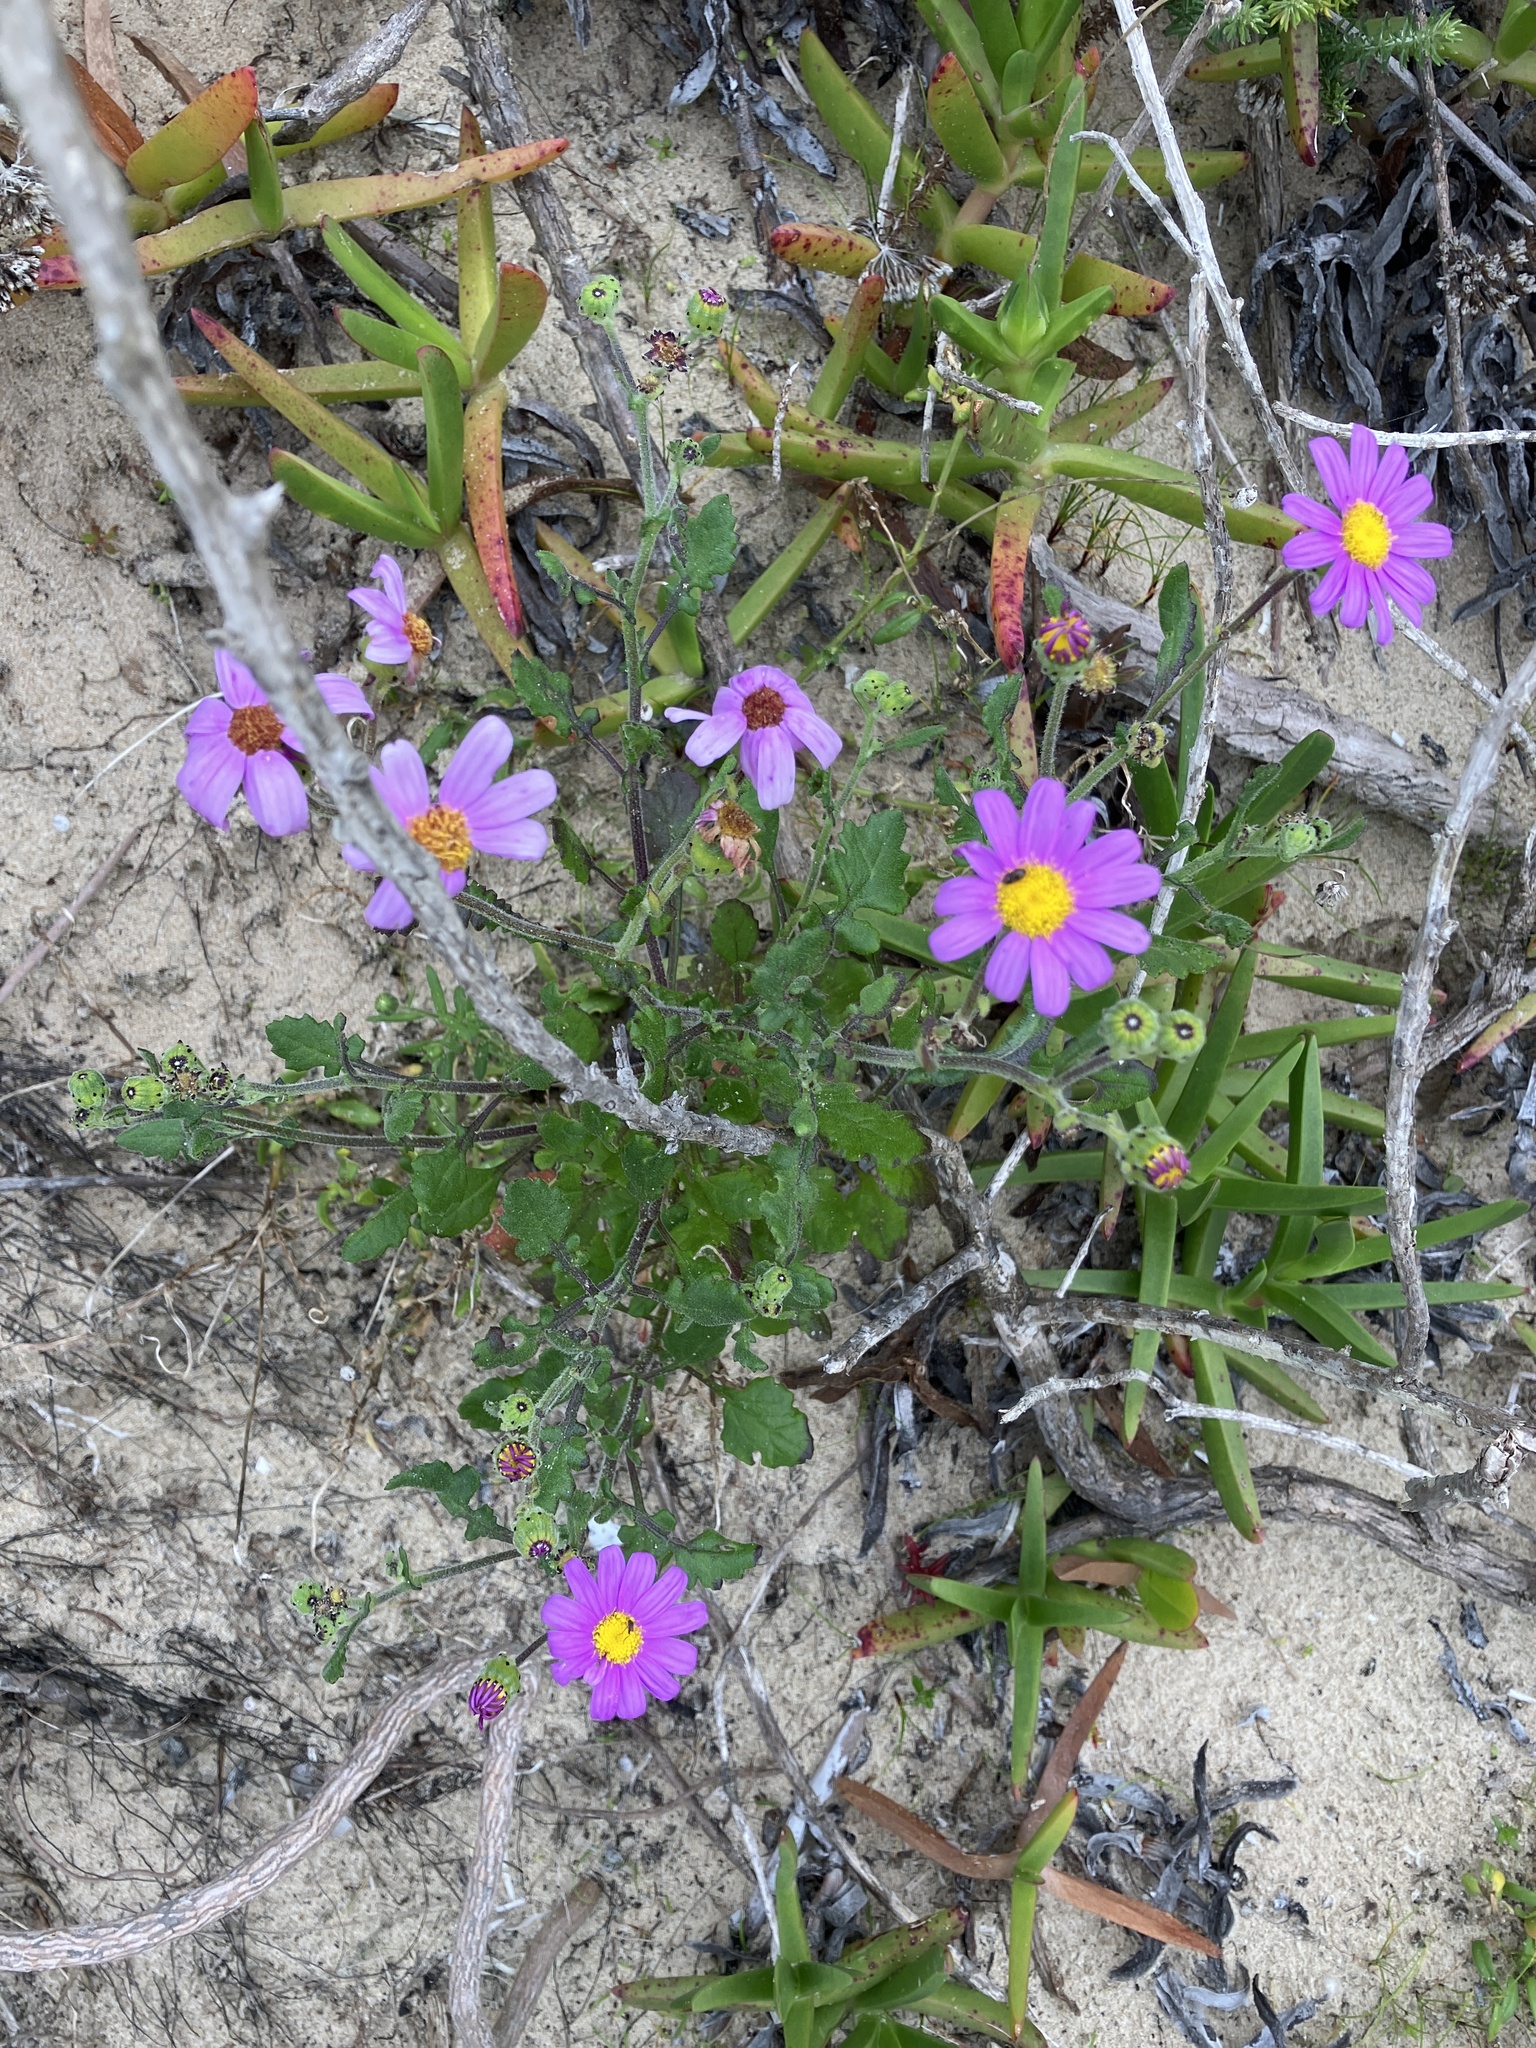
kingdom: Plantae
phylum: Tracheophyta
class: Magnoliopsida
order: Asterales
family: Asteraceae
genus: Senecio
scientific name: Senecio elegans
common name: Purple groundsel
